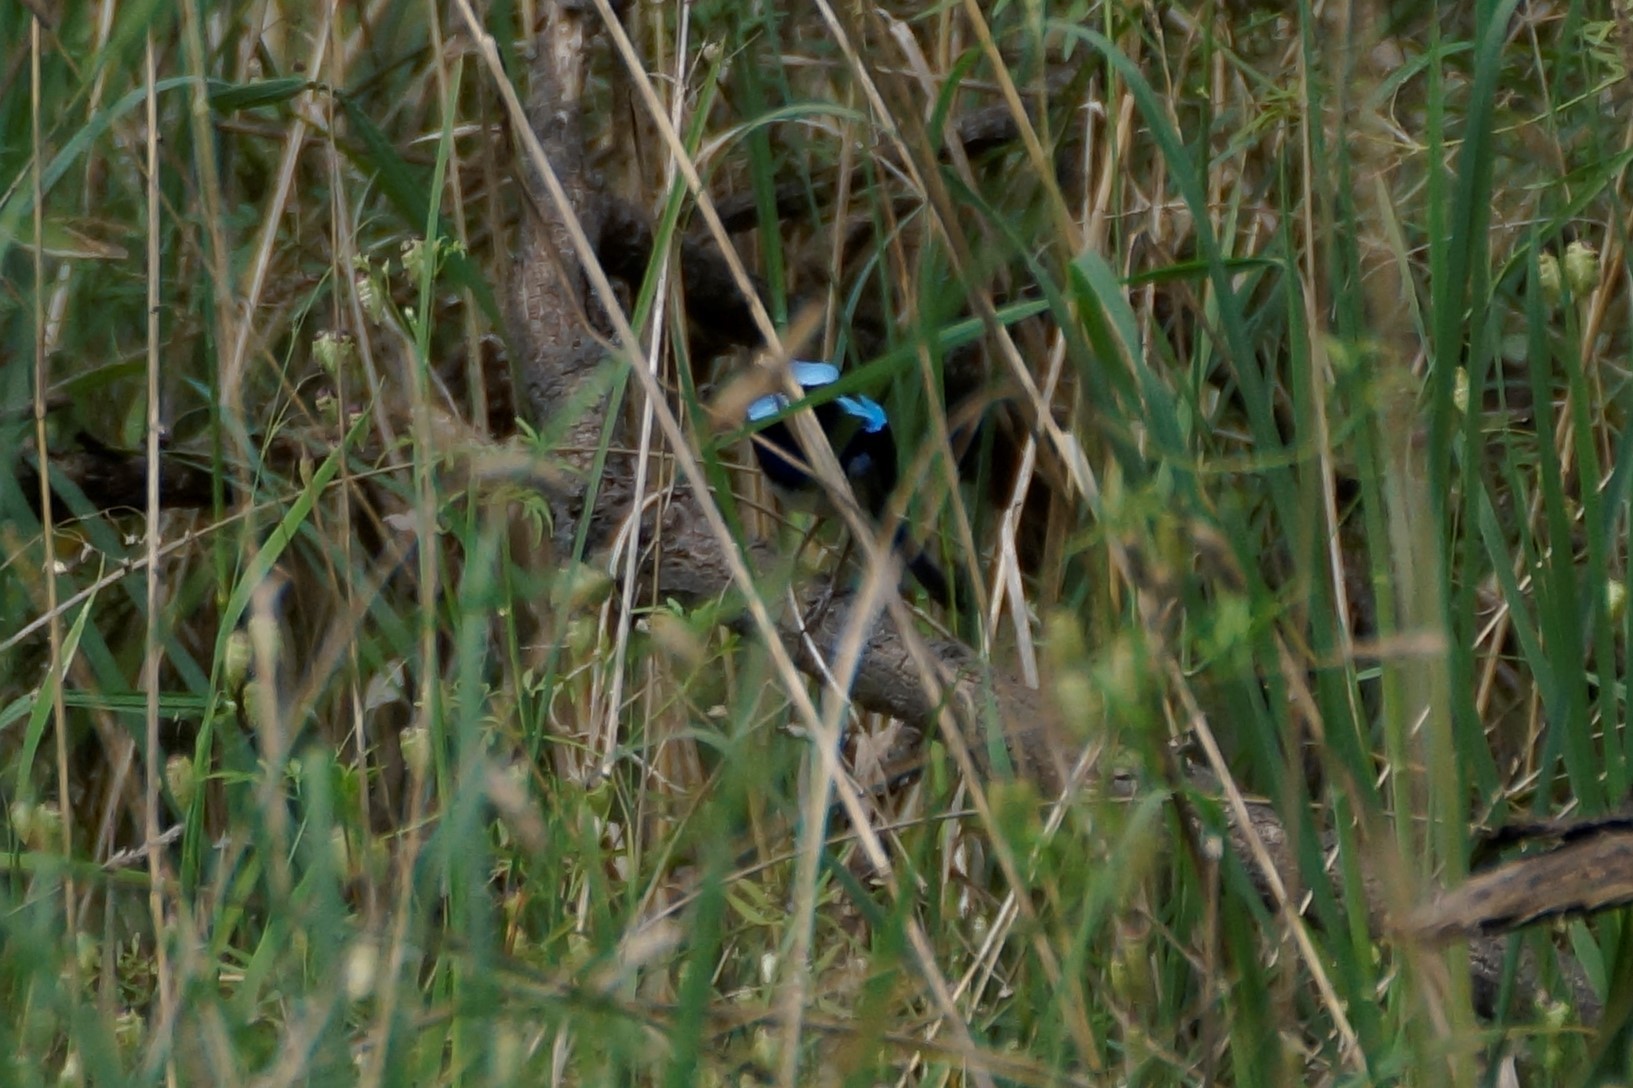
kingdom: Animalia
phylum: Chordata
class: Aves
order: Passeriformes
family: Maluridae
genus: Malurus
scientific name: Malurus cyaneus
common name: Superb fairywren
